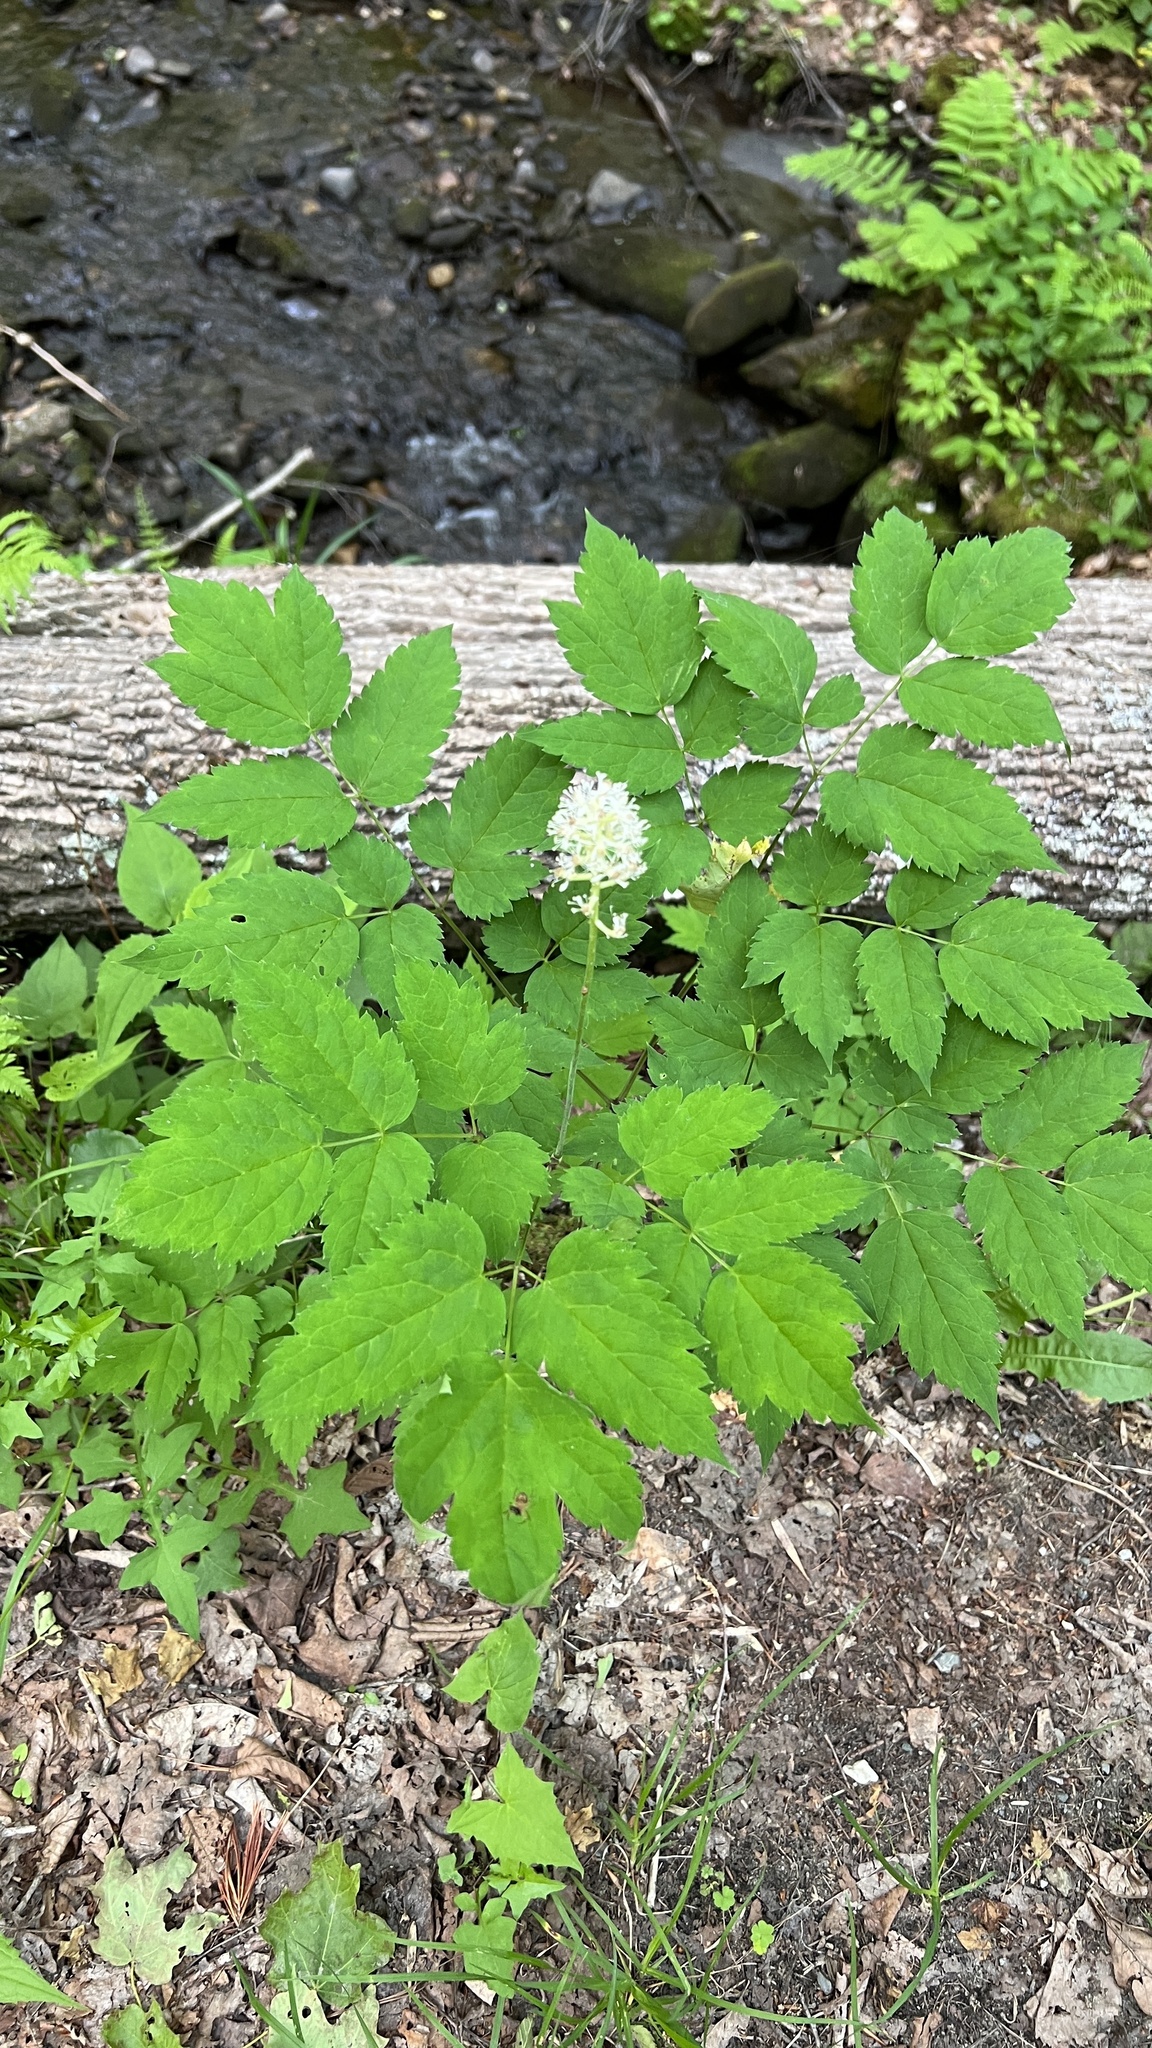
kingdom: Plantae
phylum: Tracheophyta
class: Magnoliopsida
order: Ranunculales
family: Ranunculaceae
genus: Actaea
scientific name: Actaea pachypoda
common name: Doll's-eyes
